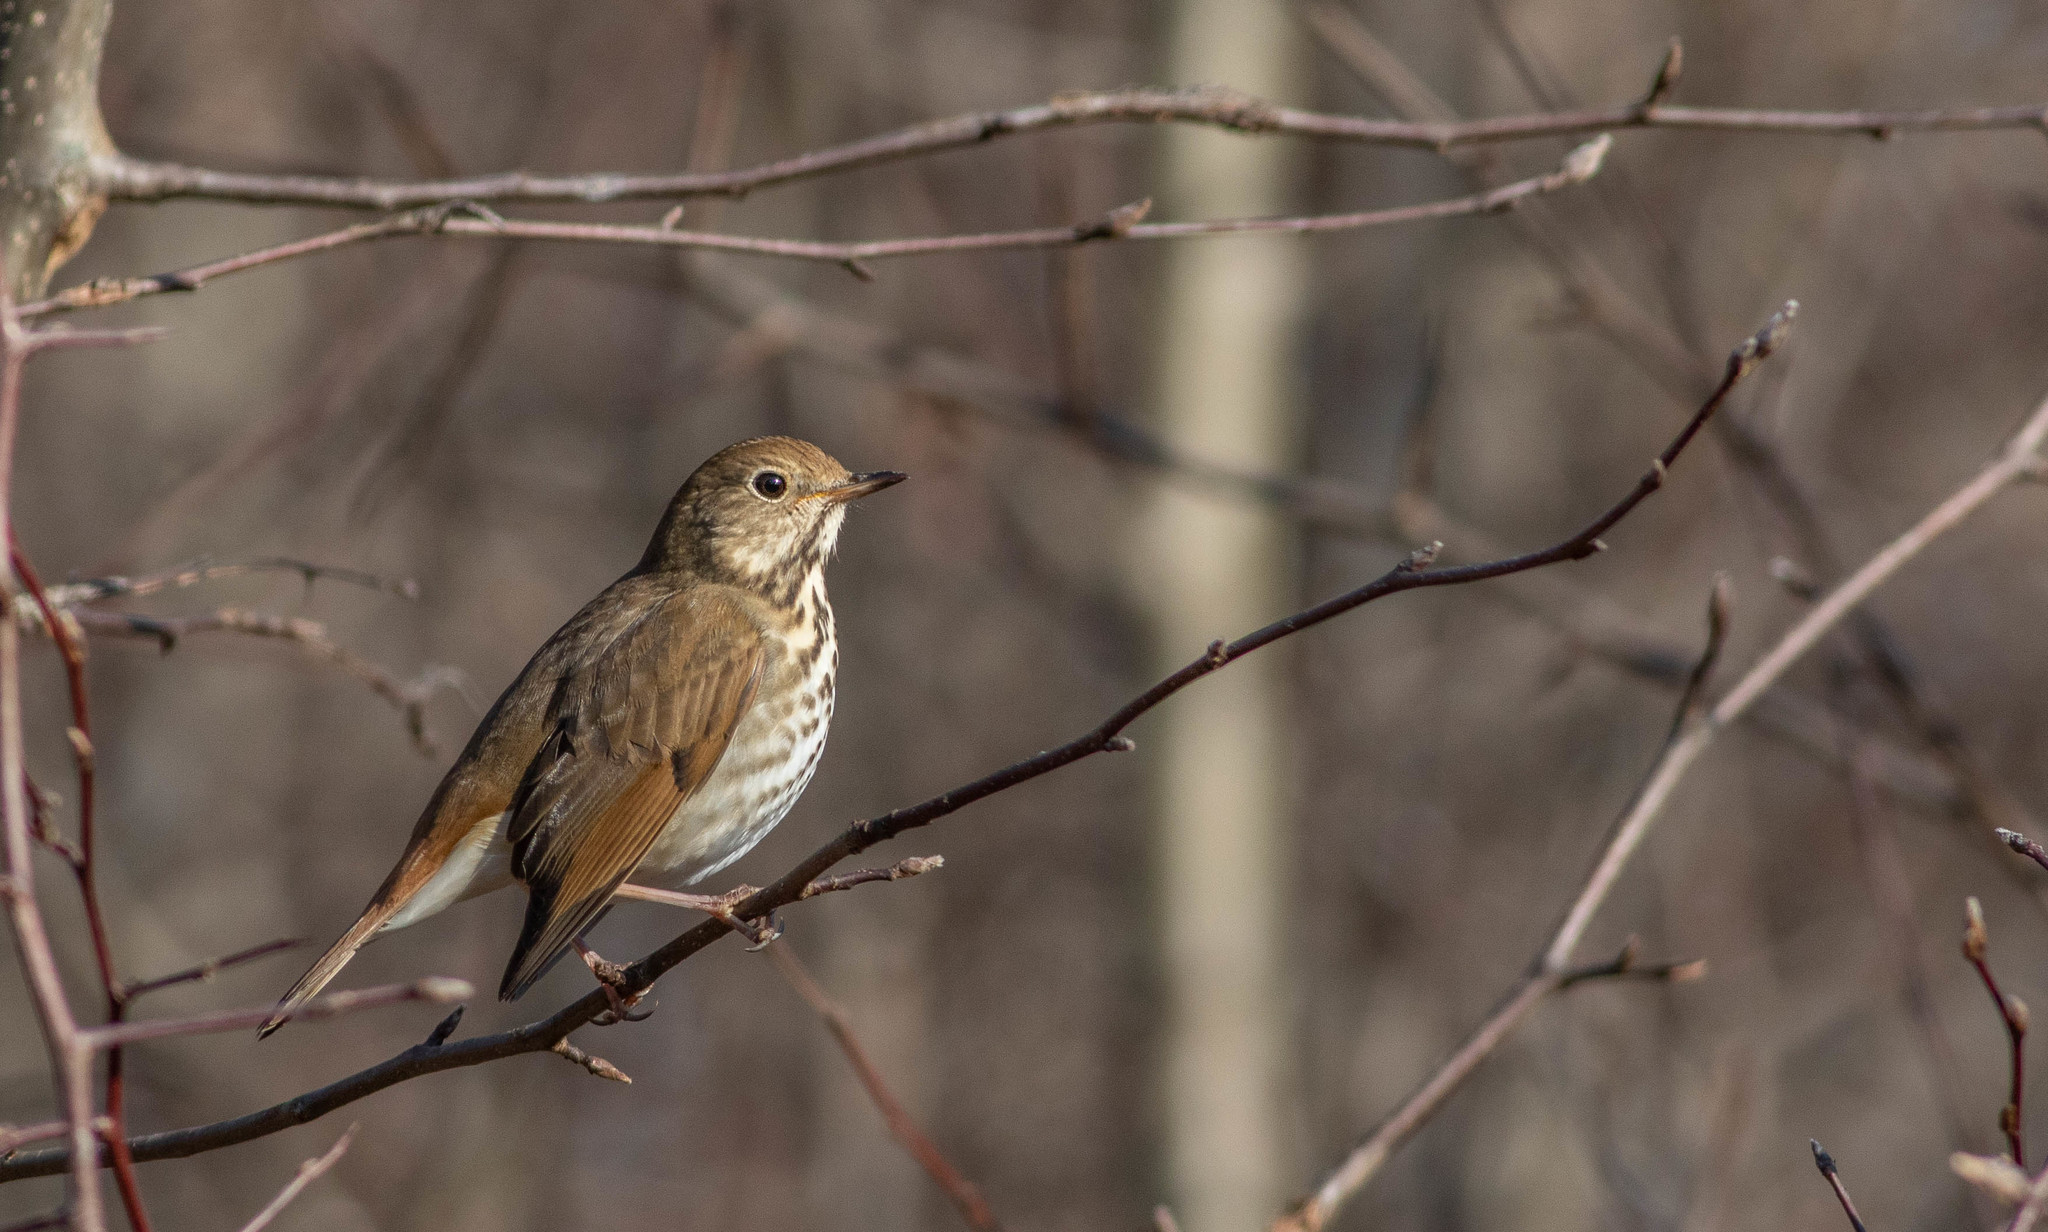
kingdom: Animalia
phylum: Chordata
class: Aves
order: Passeriformes
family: Turdidae
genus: Catharus
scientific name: Catharus guttatus
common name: Hermit thrush
